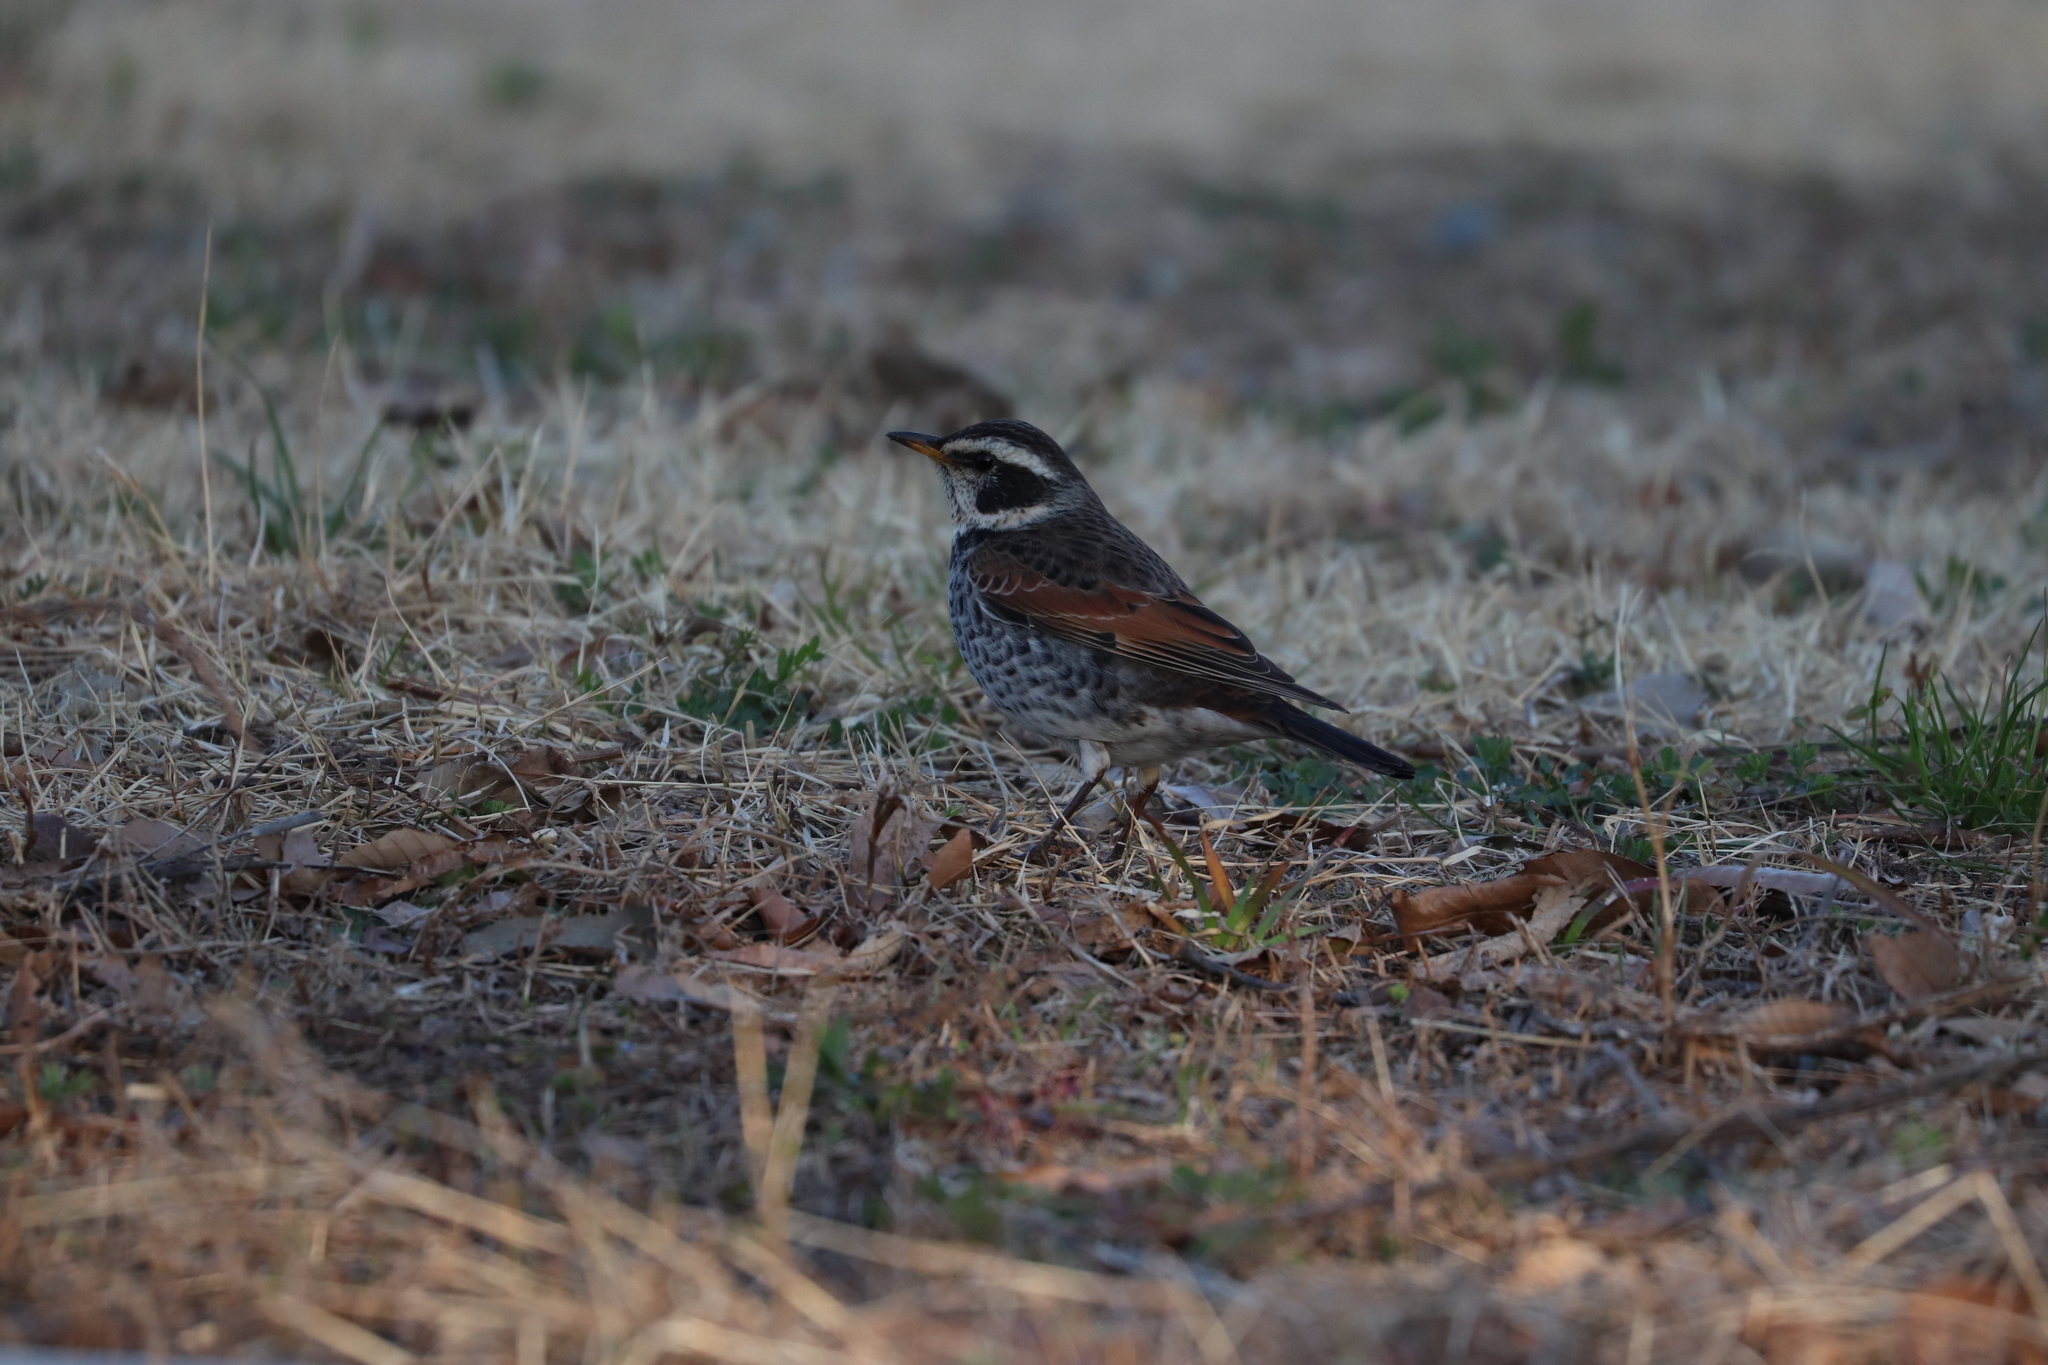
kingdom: Animalia
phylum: Chordata
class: Aves
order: Passeriformes
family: Turdidae
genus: Turdus
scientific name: Turdus eunomus
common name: Dusky thrush
